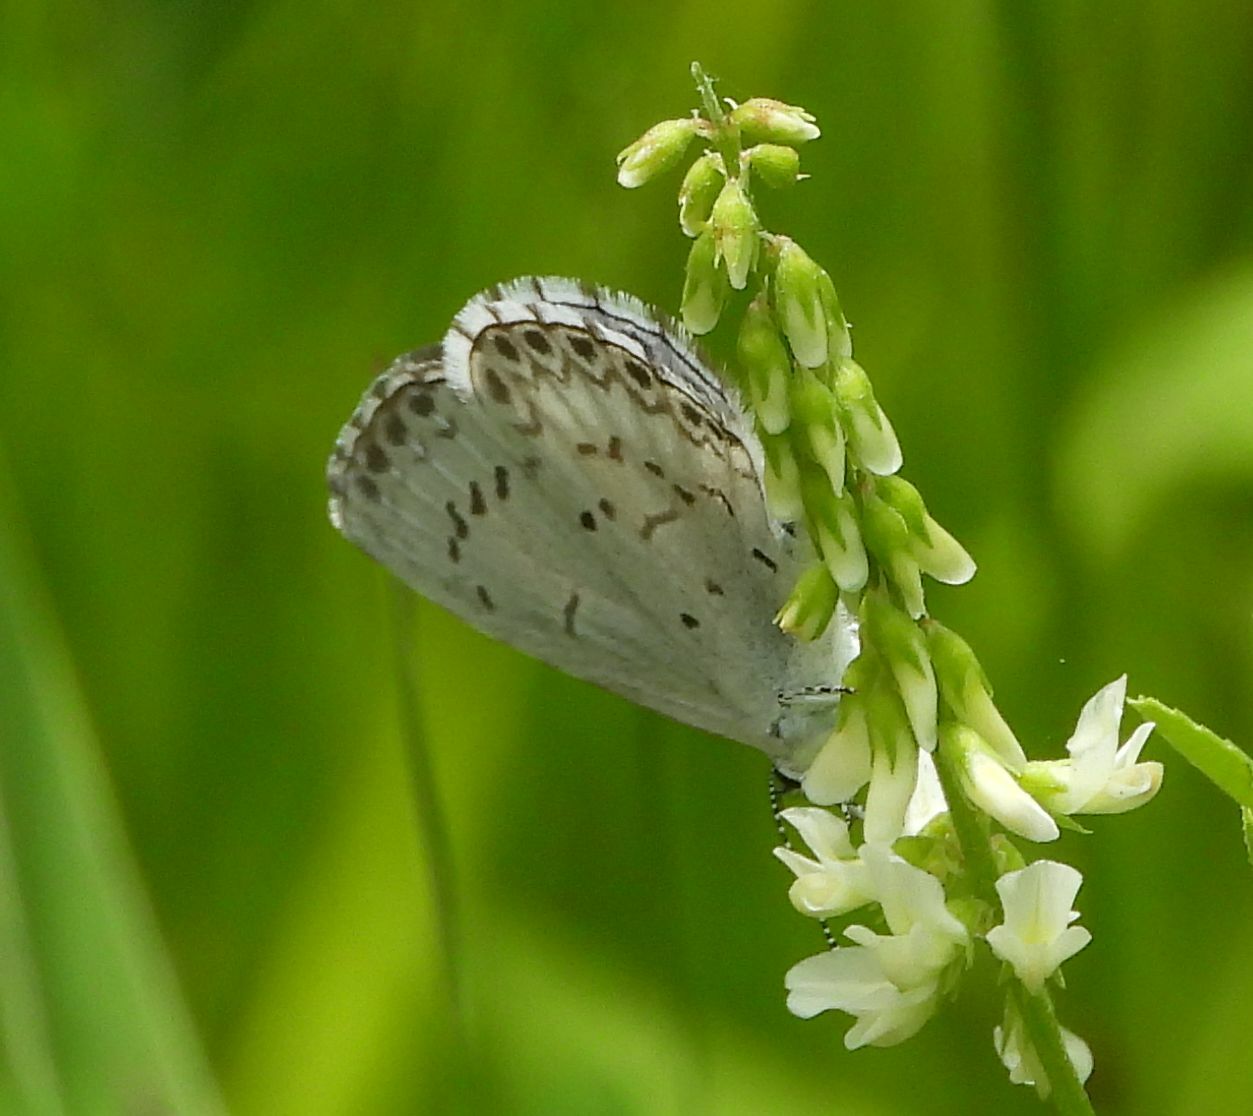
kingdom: Animalia
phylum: Arthropoda
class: Insecta
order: Lepidoptera
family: Lycaenidae
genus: Celastrina
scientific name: Celastrina lucia
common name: Lucia azure
